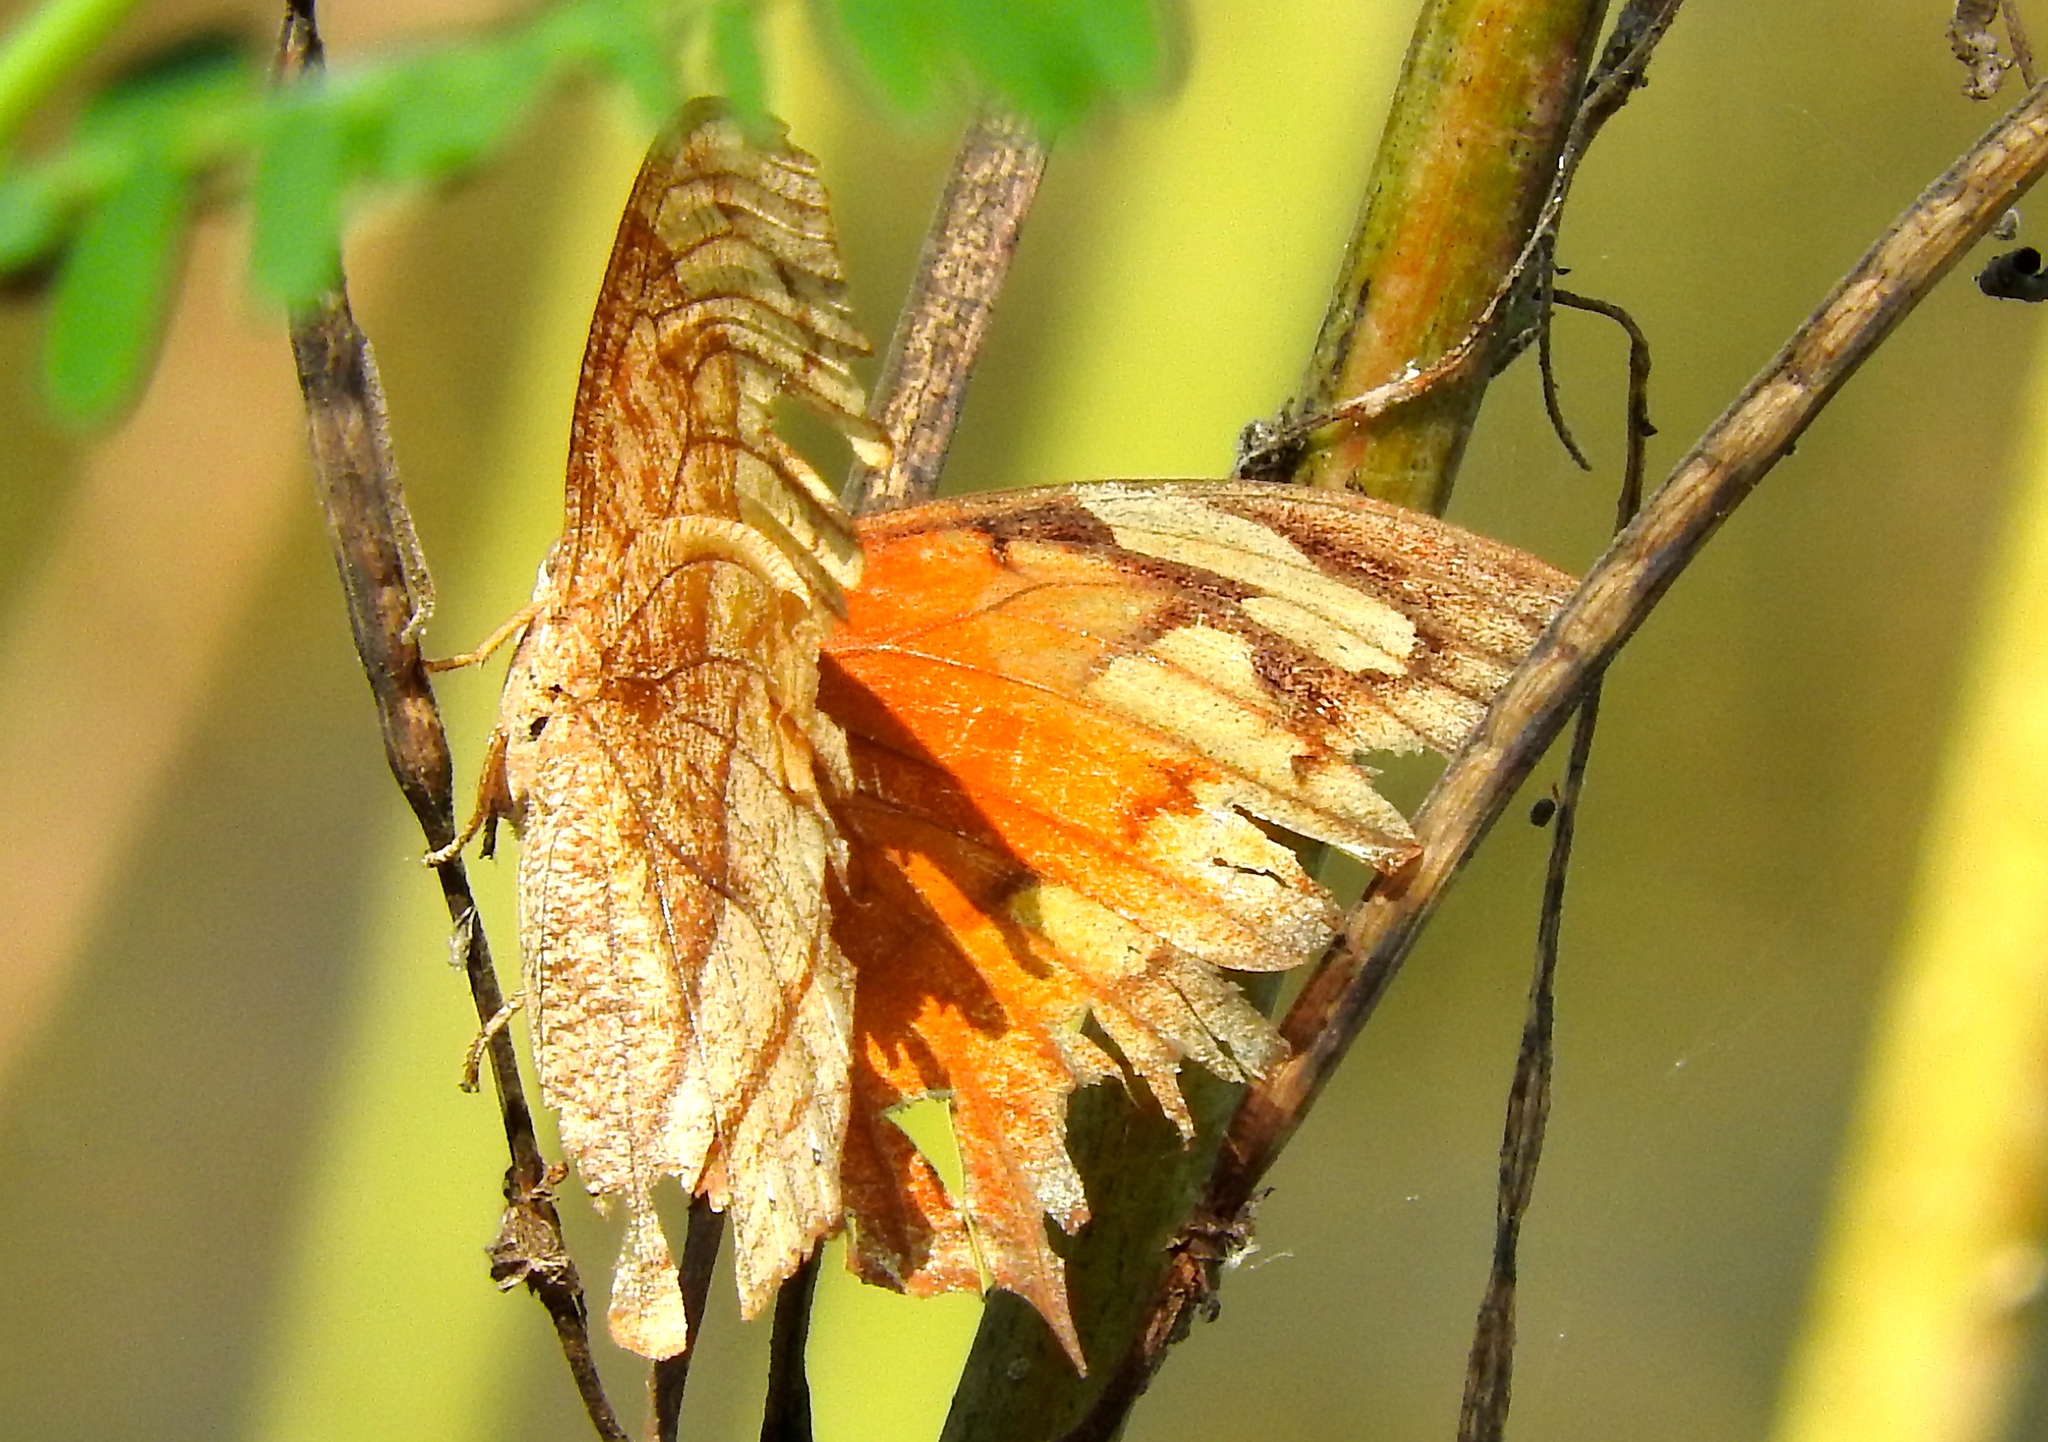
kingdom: Animalia
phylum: Arthropoda
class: Insecta
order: Lepidoptera
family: Nymphalidae
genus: Fountainea
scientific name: Fountainea
